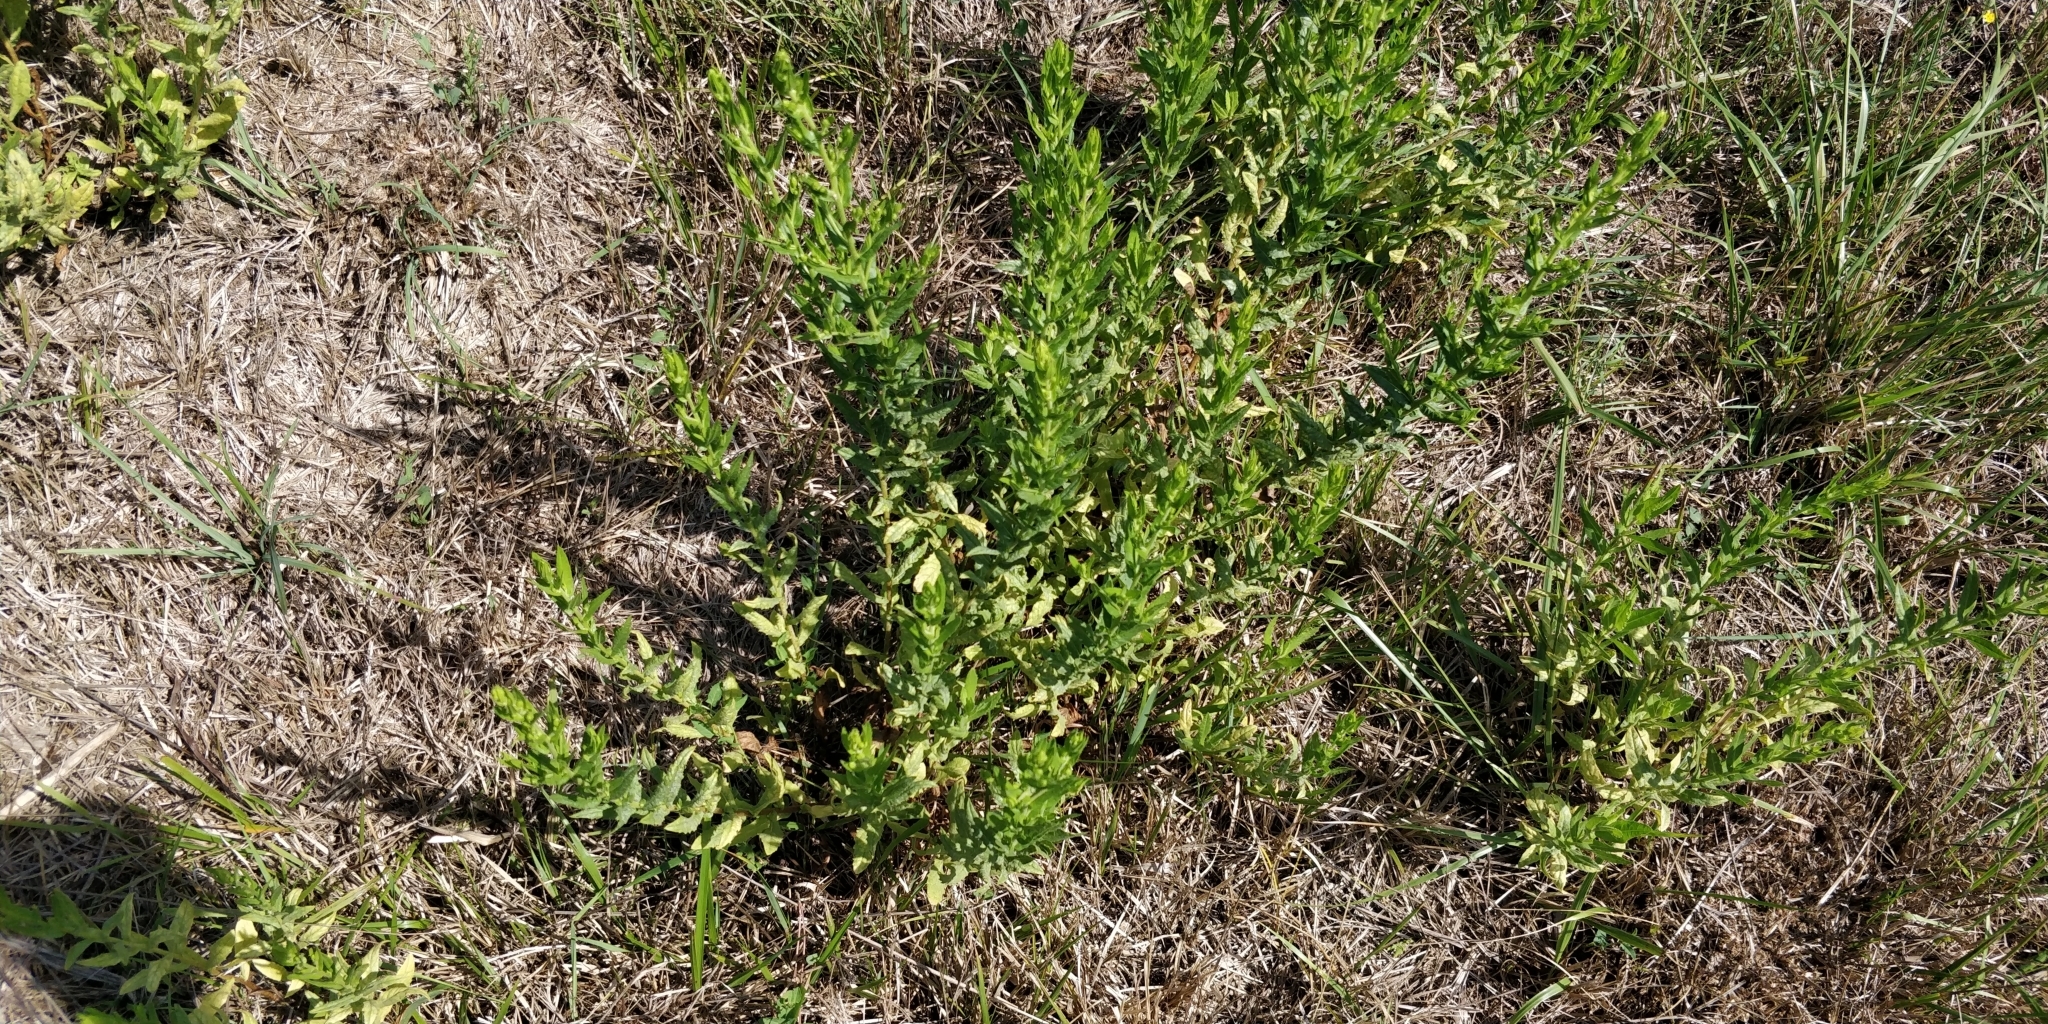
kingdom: Plantae
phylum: Tracheophyta
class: Magnoliopsida
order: Asterales
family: Asteraceae
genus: Dittrichia
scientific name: Dittrichia viscosa
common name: Woody fleabane
